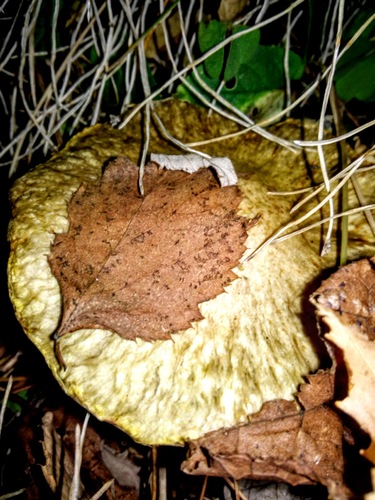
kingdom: Fungi
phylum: Basidiomycota
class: Agaricomycetes
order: Boletales
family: Suillaceae
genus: Suillus
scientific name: Suillus americanus
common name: Chicken fat mushroom
